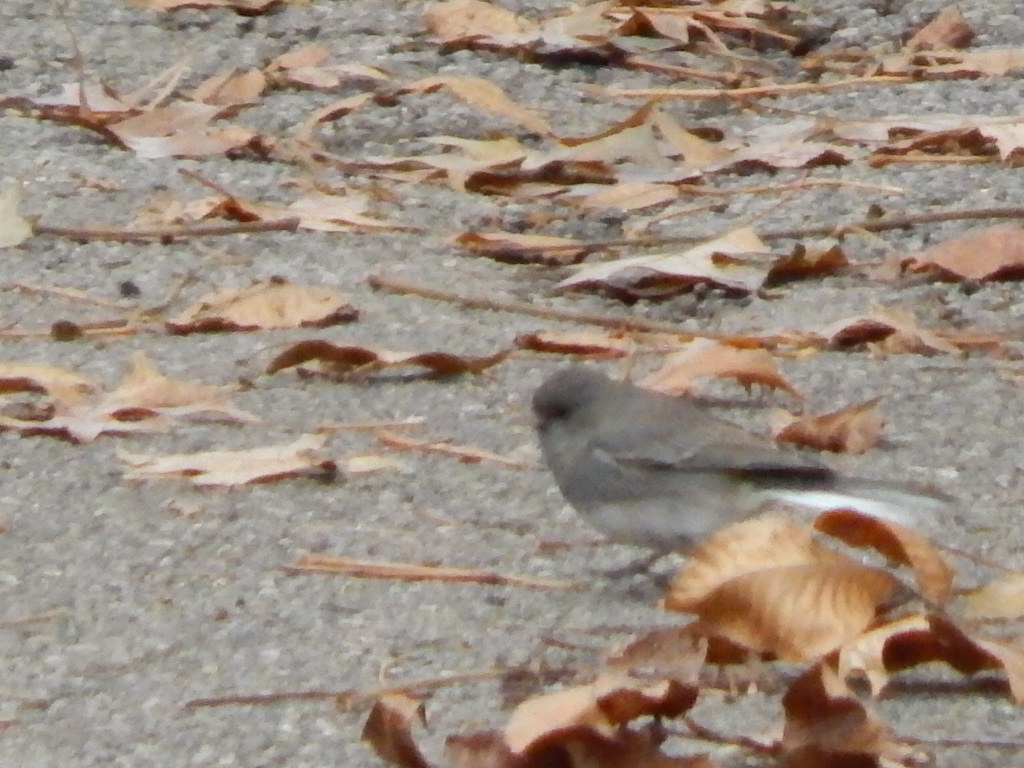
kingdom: Animalia
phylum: Chordata
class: Aves
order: Passeriformes
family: Passerellidae
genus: Junco
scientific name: Junco hyemalis
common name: Dark-eyed junco
